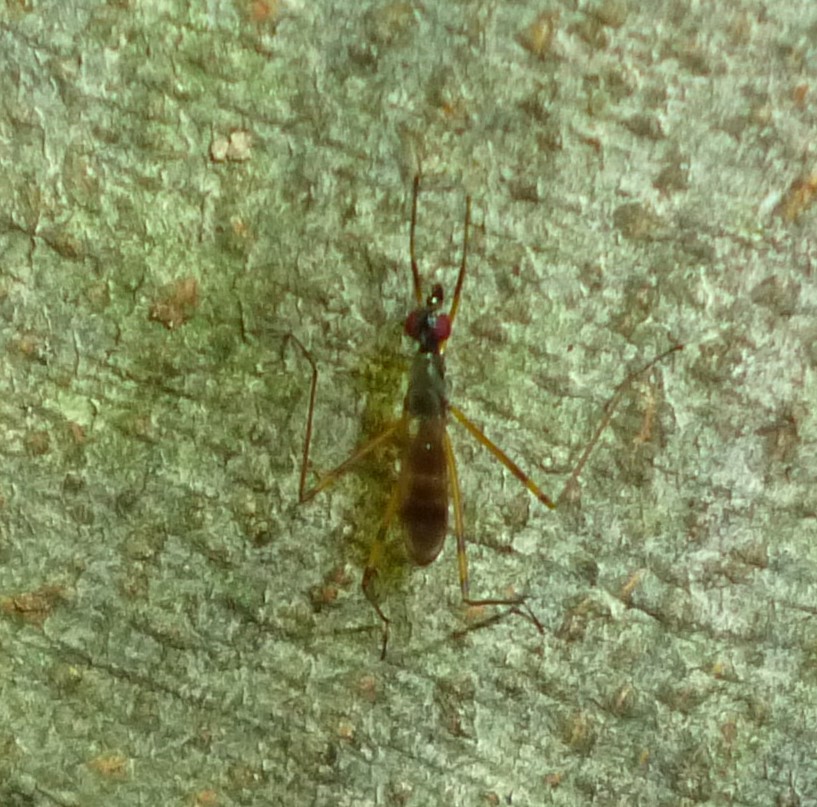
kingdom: Animalia
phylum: Arthropoda
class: Insecta
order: Diptera
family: Micropezidae
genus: Rainieria
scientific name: Rainieria antennaepes
